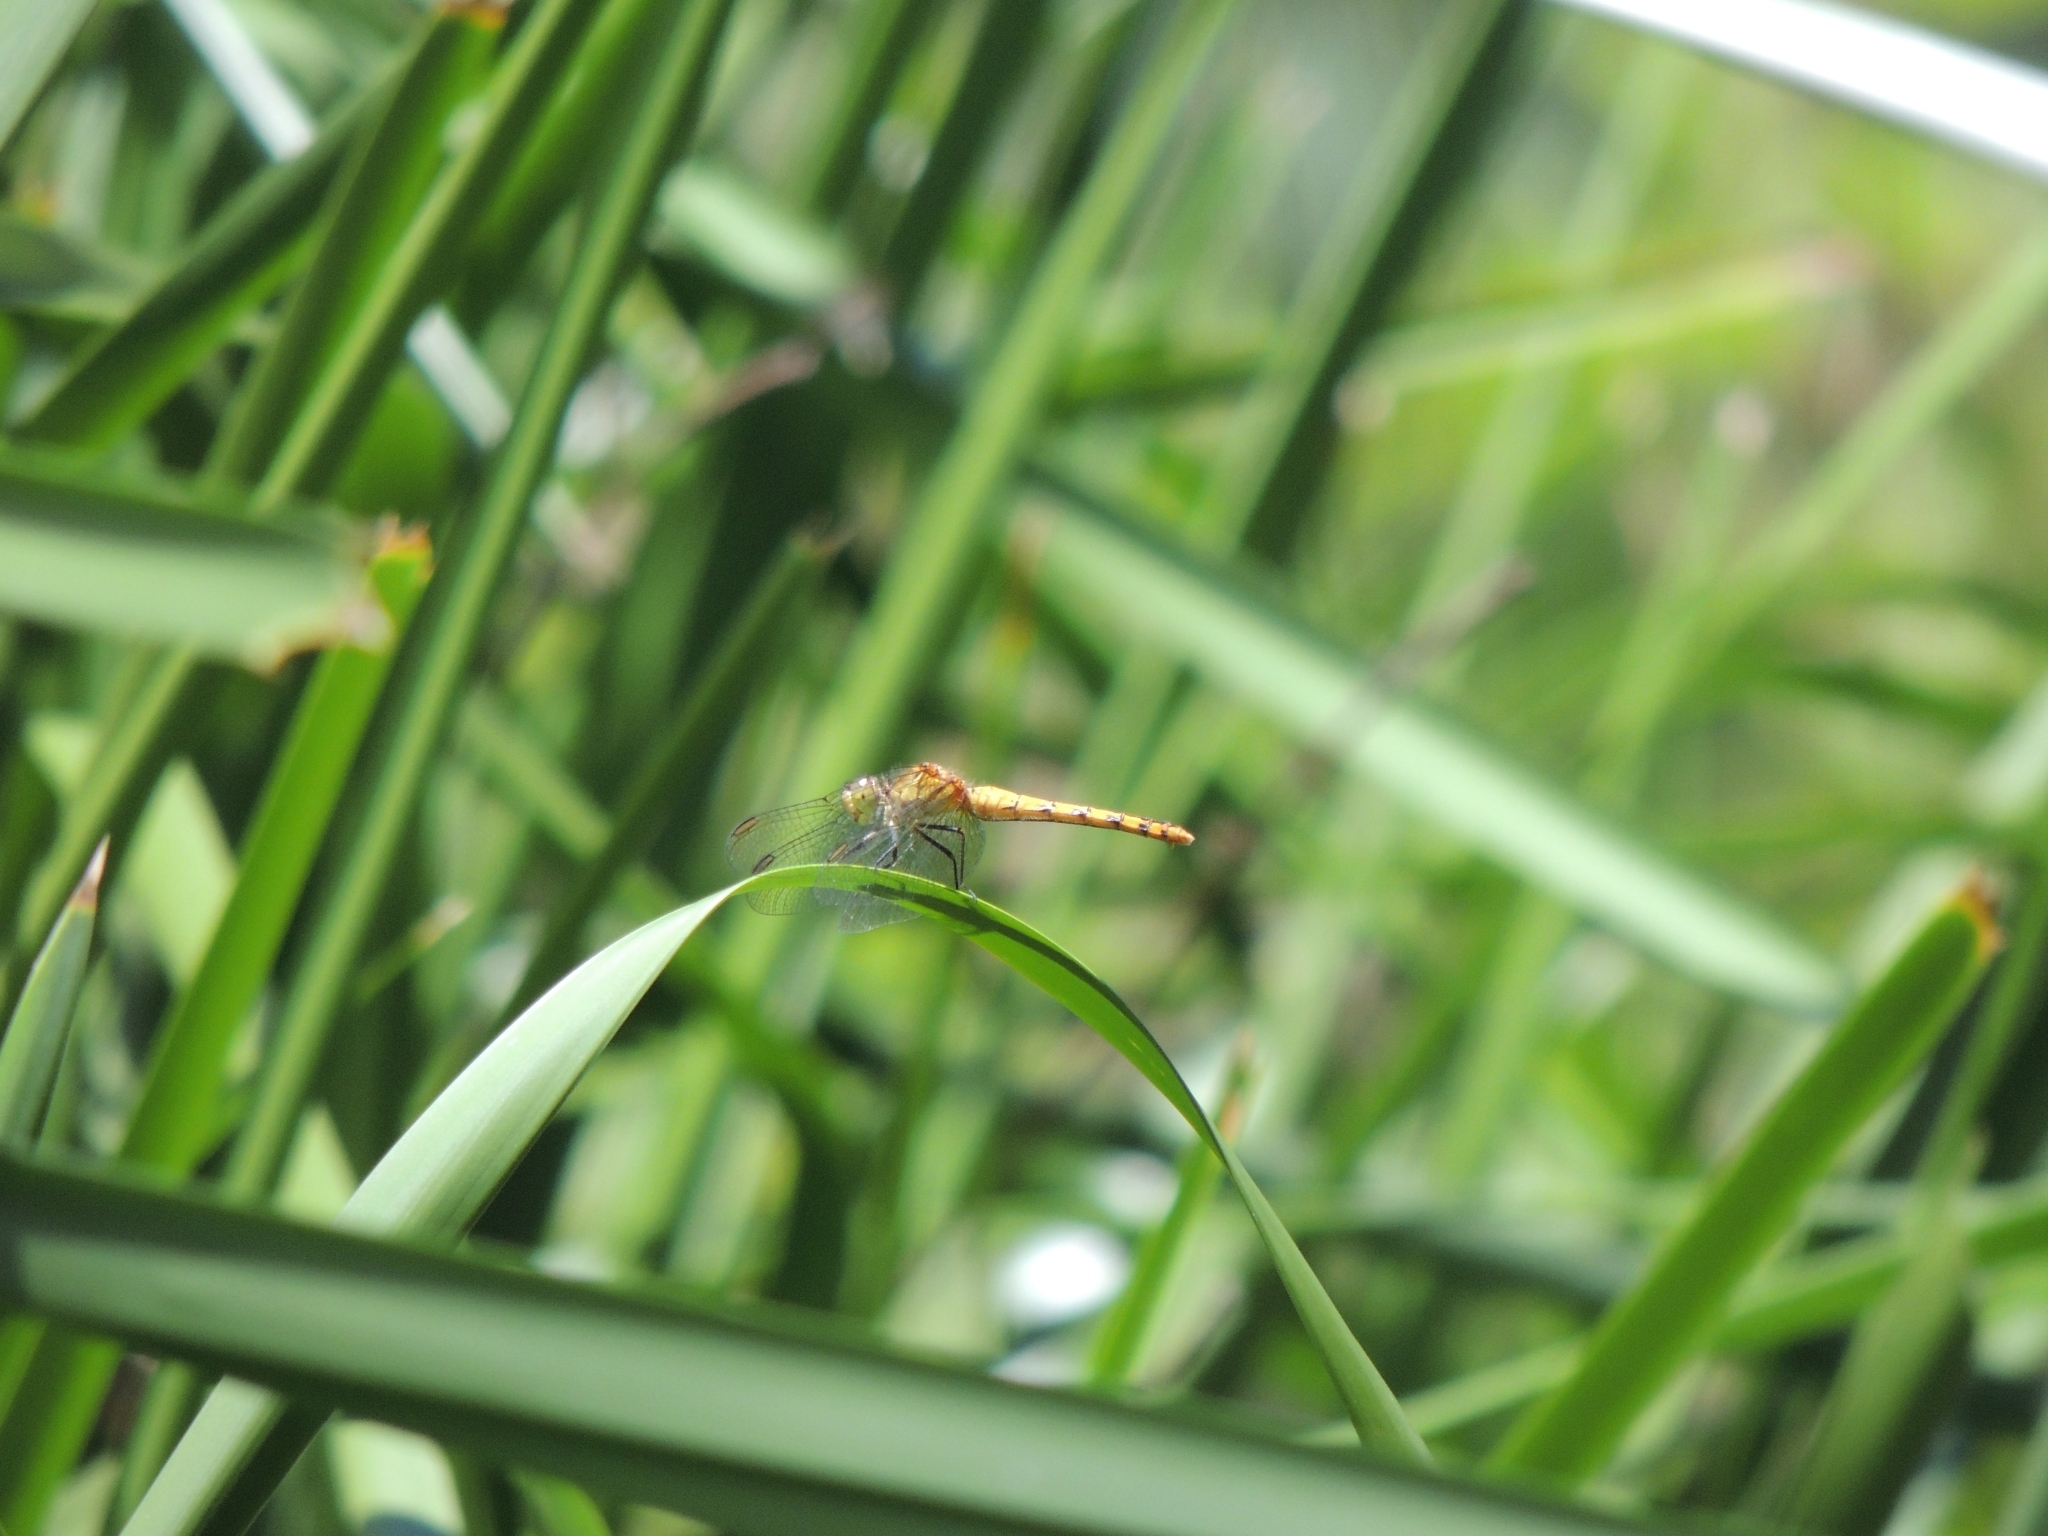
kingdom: Animalia
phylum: Arthropoda
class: Insecta
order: Odonata
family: Libellulidae
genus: Diplacodes
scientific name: Diplacodes melanopsis
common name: Black-faced percher
